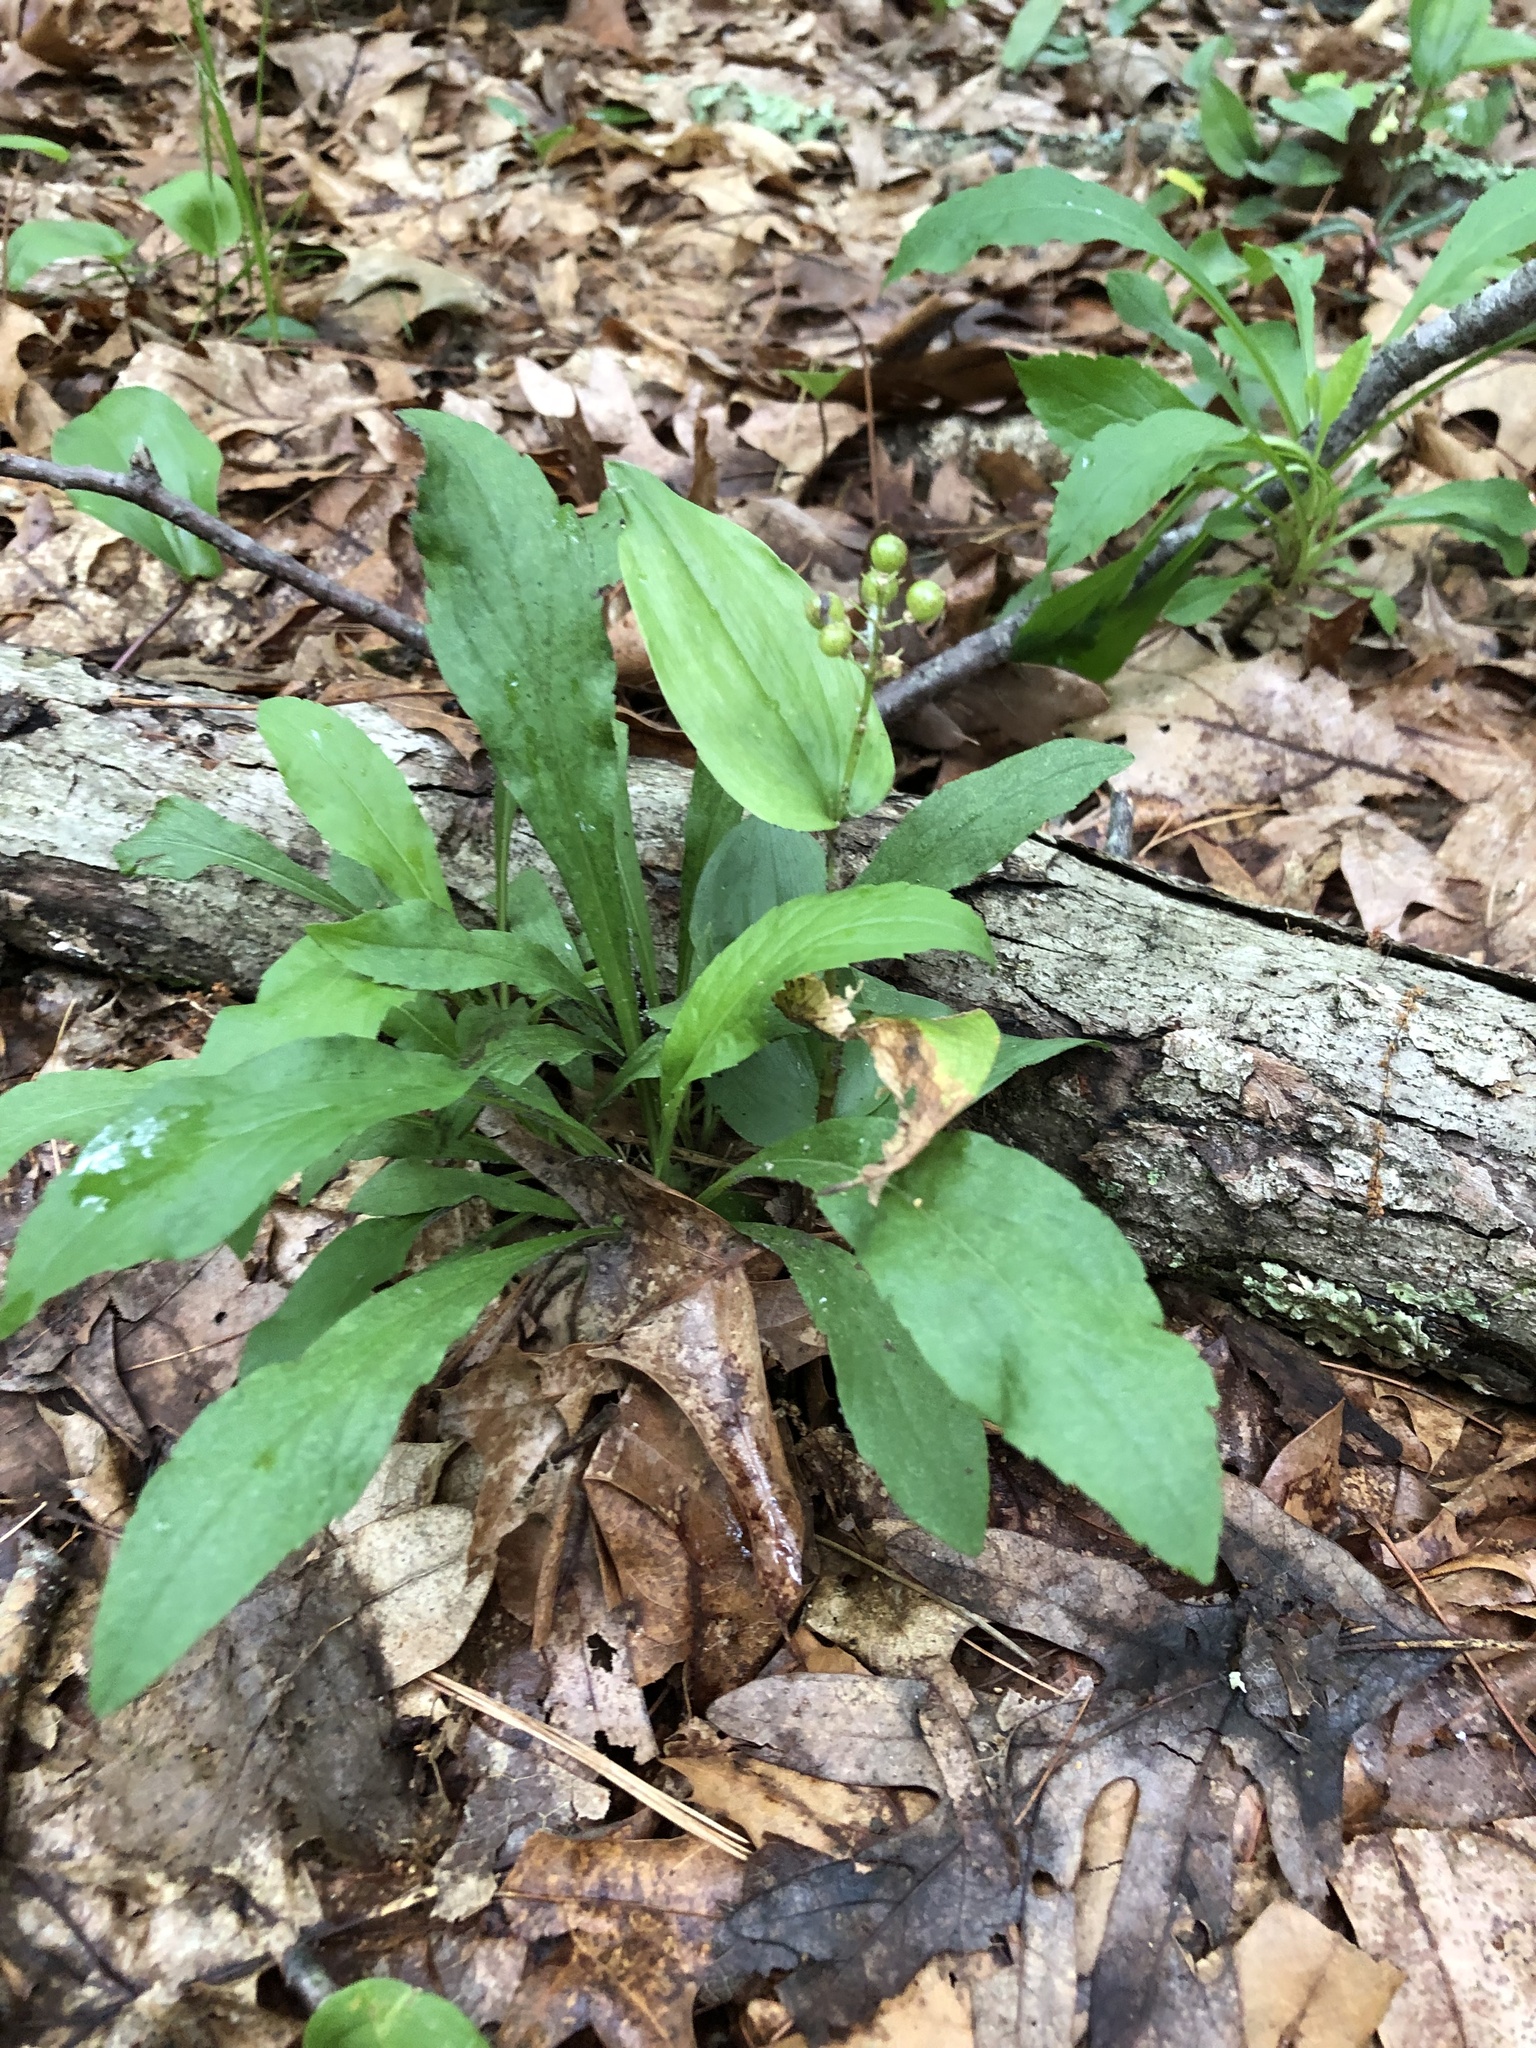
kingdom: Plantae
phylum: Tracheophyta
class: Liliopsida
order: Asparagales
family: Asparagaceae
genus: Maianthemum
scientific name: Maianthemum canadense
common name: False lily-of-the-valley
